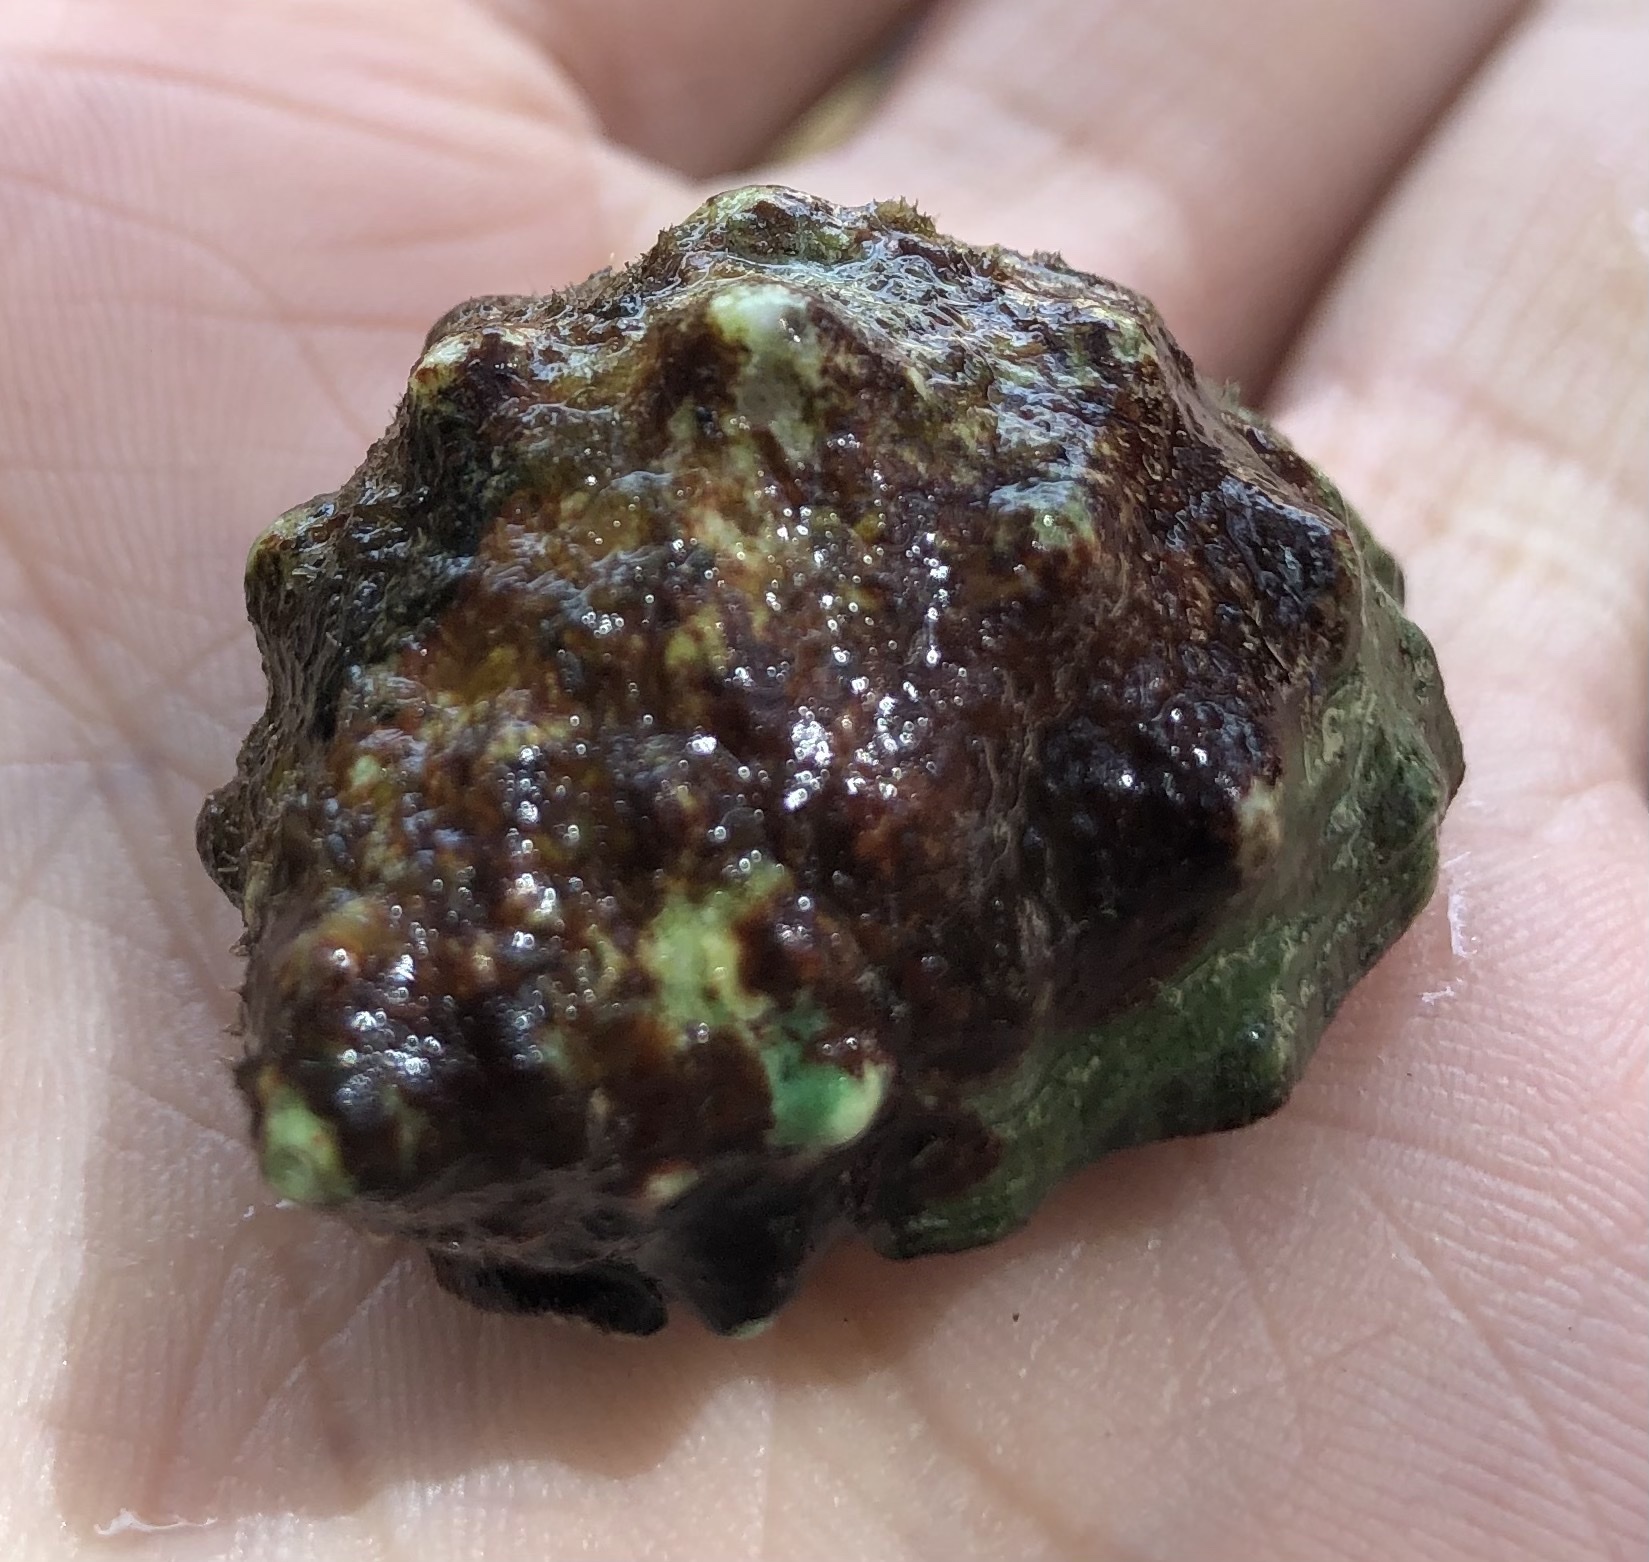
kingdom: Animalia
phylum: Mollusca
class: Gastropoda
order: Neogastropoda
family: Muricidae
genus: Stramonita
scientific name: Stramonita haemastoma
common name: Florida dog winkle
